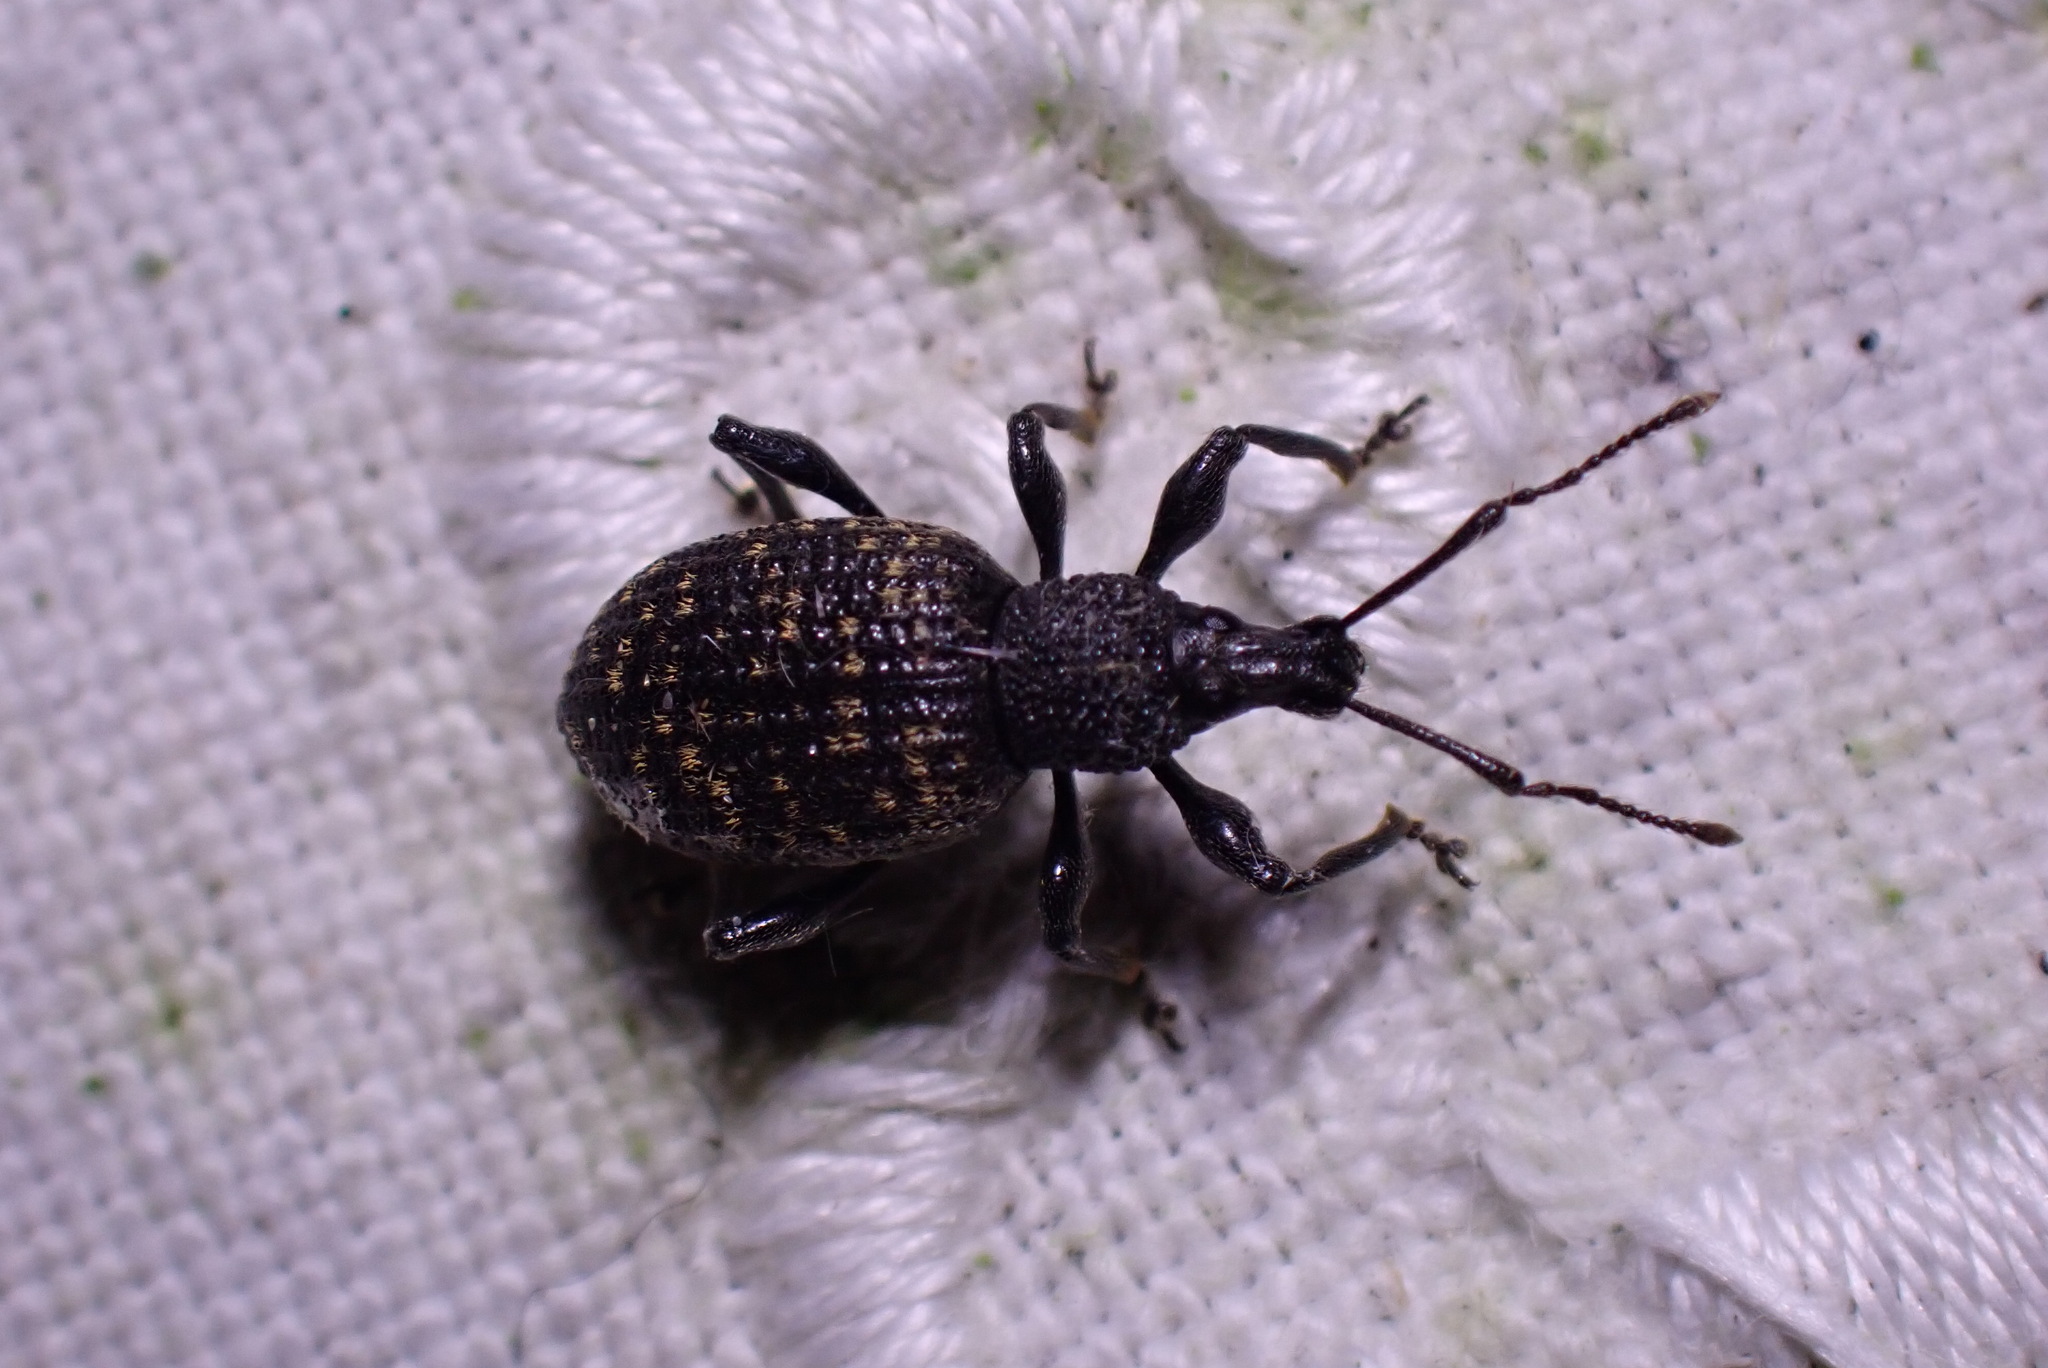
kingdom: Animalia
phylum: Arthropoda
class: Insecta
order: Coleoptera
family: Curculionidae
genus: Otiorhynchus
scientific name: Otiorhynchus sulcatus
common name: Black vine weevil
